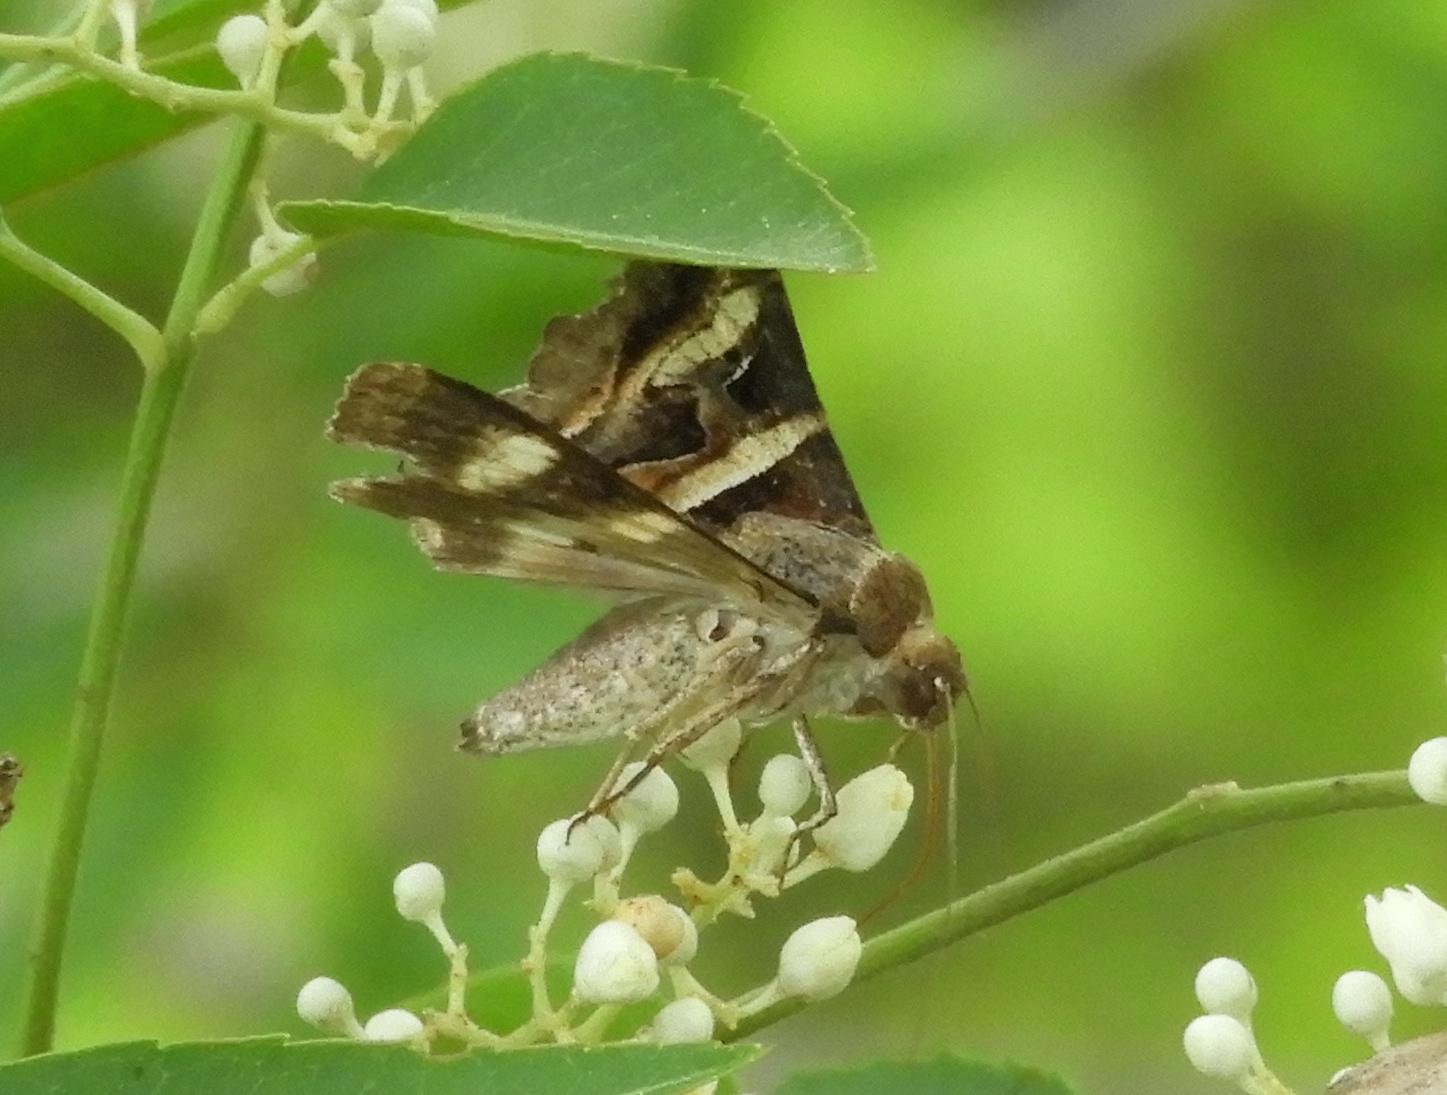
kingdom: Animalia
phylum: Arthropoda
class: Insecta
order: Lepidoptera
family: Erebidae
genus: Melipotis
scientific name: Melipotis perpendicularis
